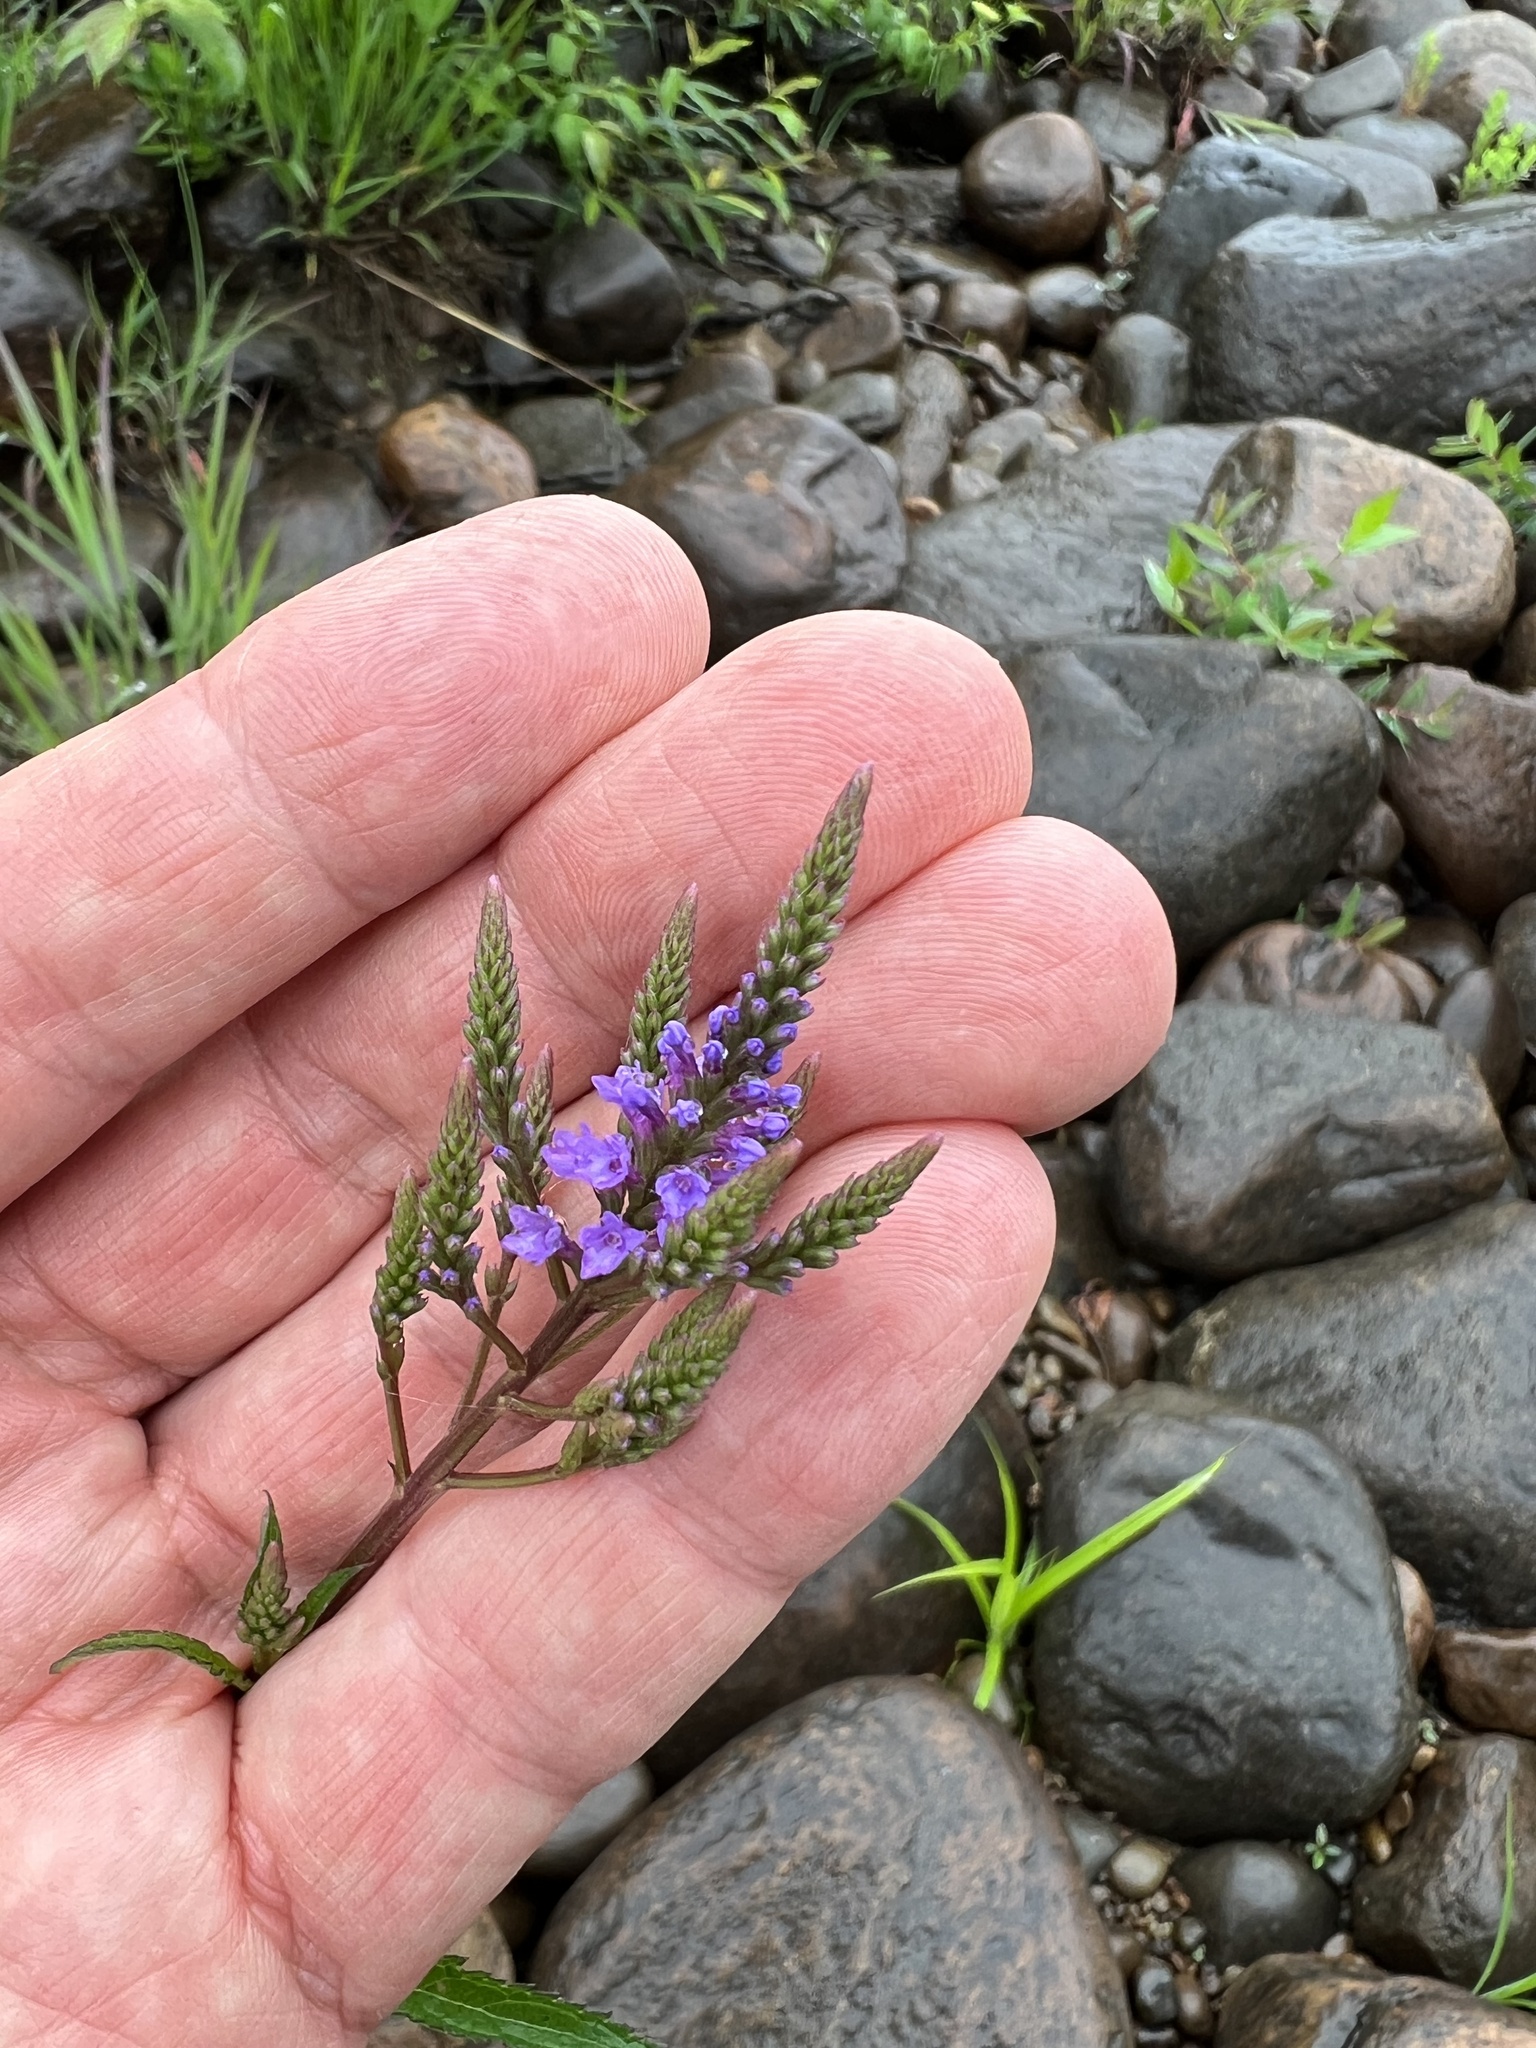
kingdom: Plantae
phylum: Tracheophyta
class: Magnoliopsida
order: Lamiales
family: Verbenaceae
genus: Verbena
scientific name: Verbena hastata
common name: American blue vervain
